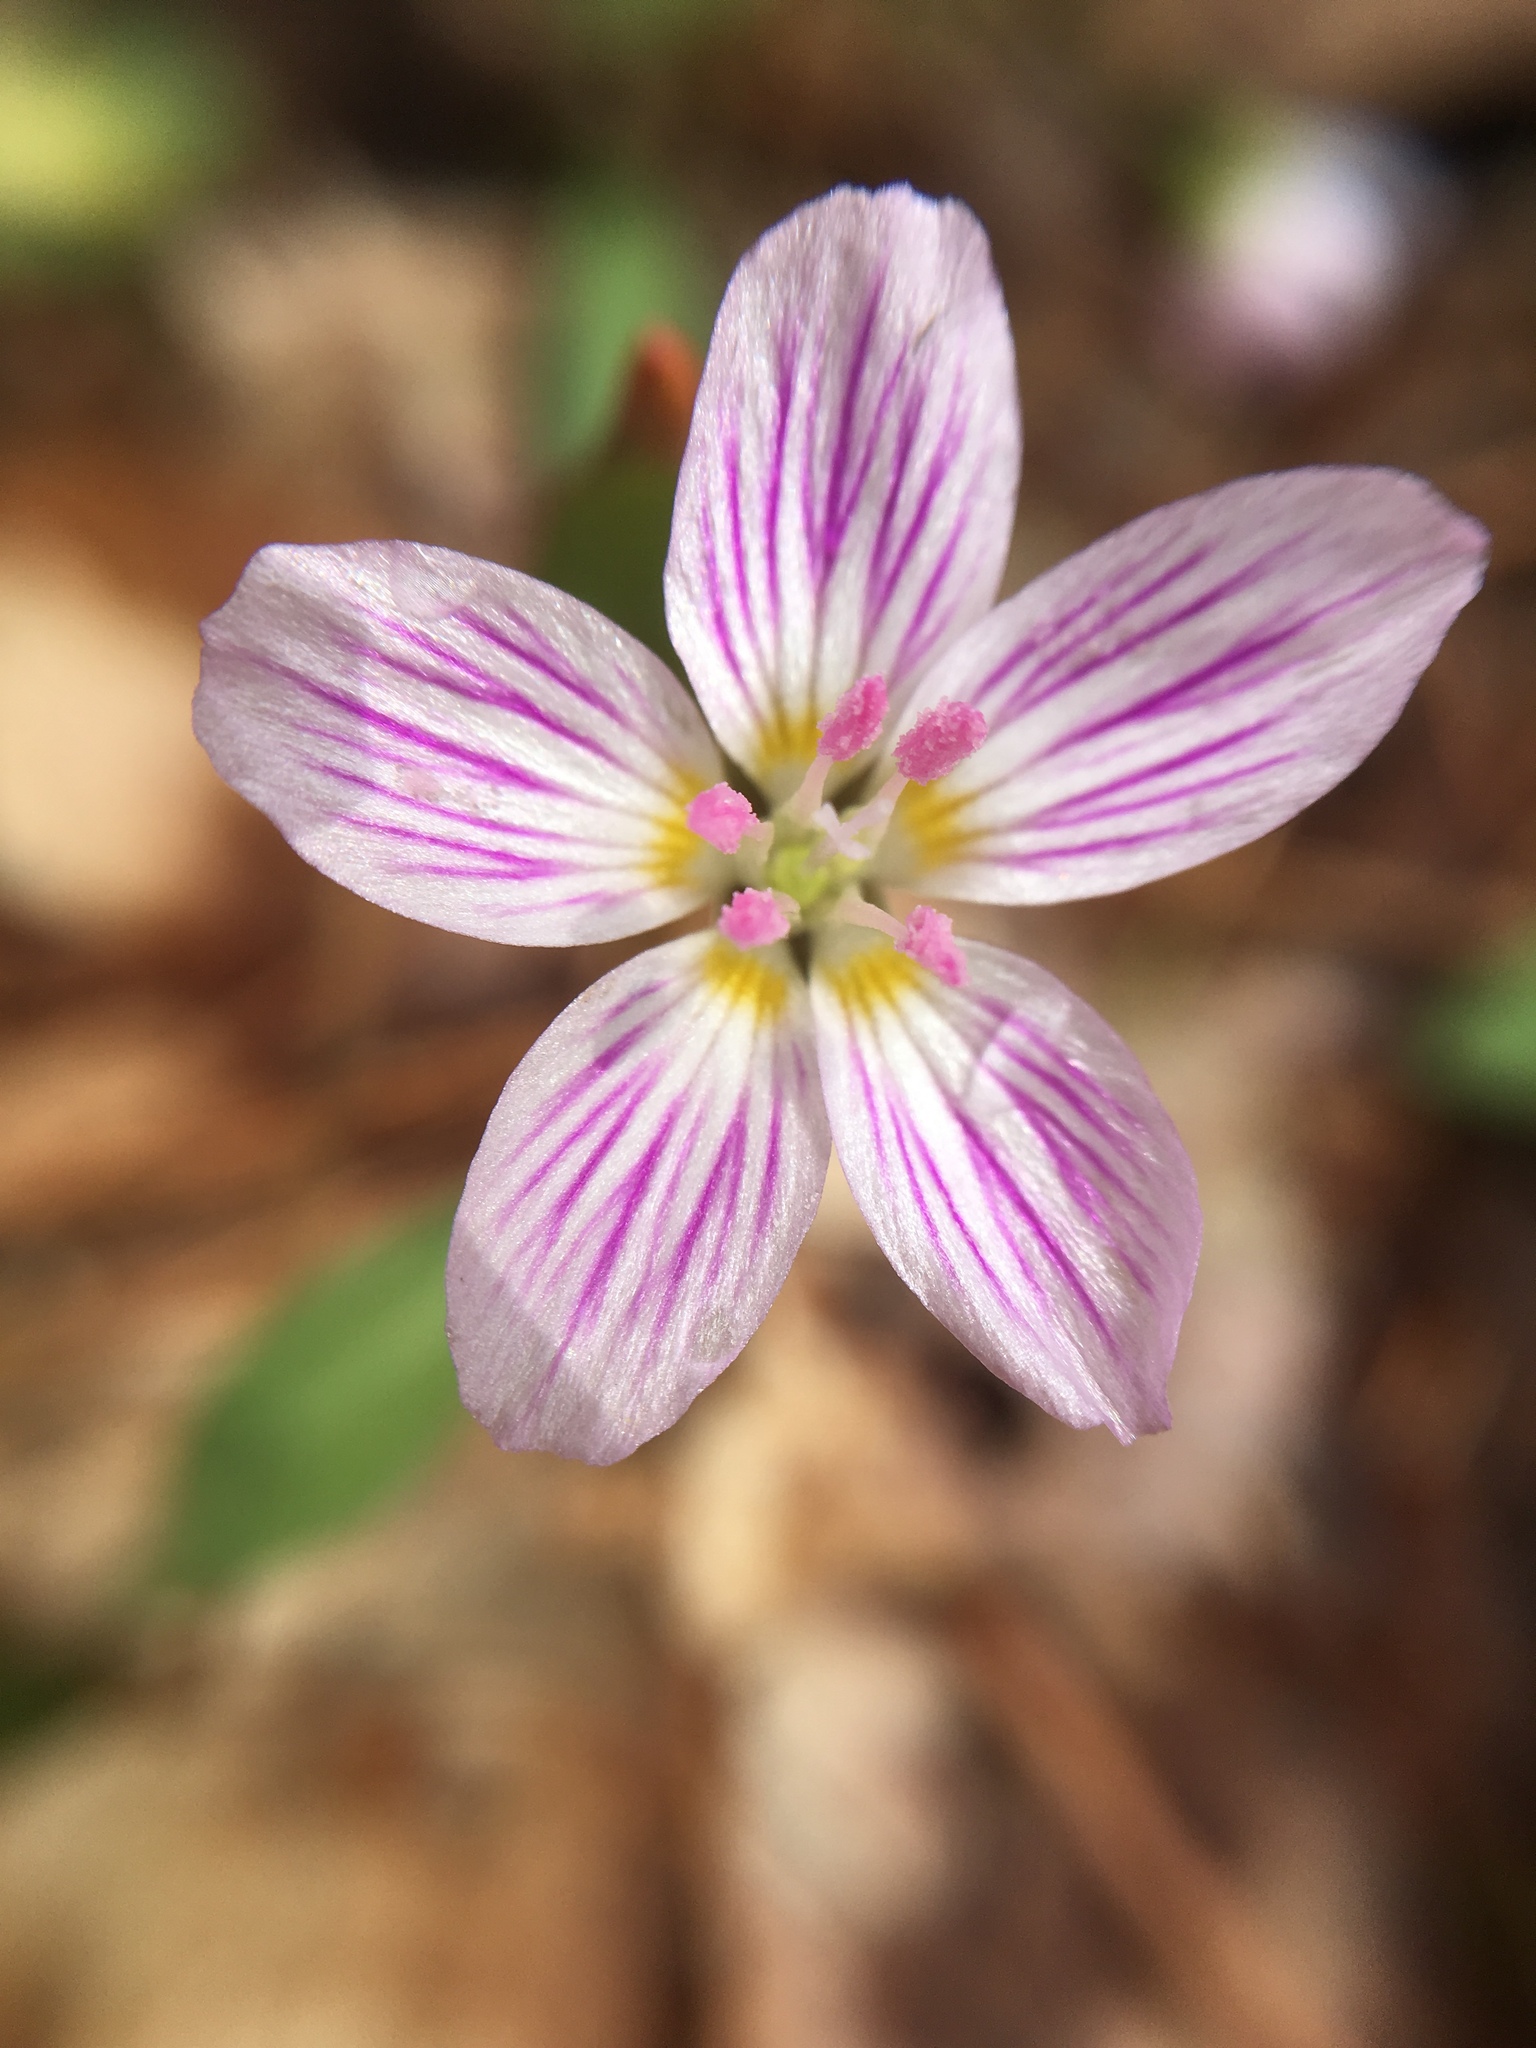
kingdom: Plantae
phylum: Tracheophyta
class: Magnoliopsida
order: Caryophyllales
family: Montiaceae
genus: Claytonia
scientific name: Claytonia caroliniana
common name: Carolina spring beauty
